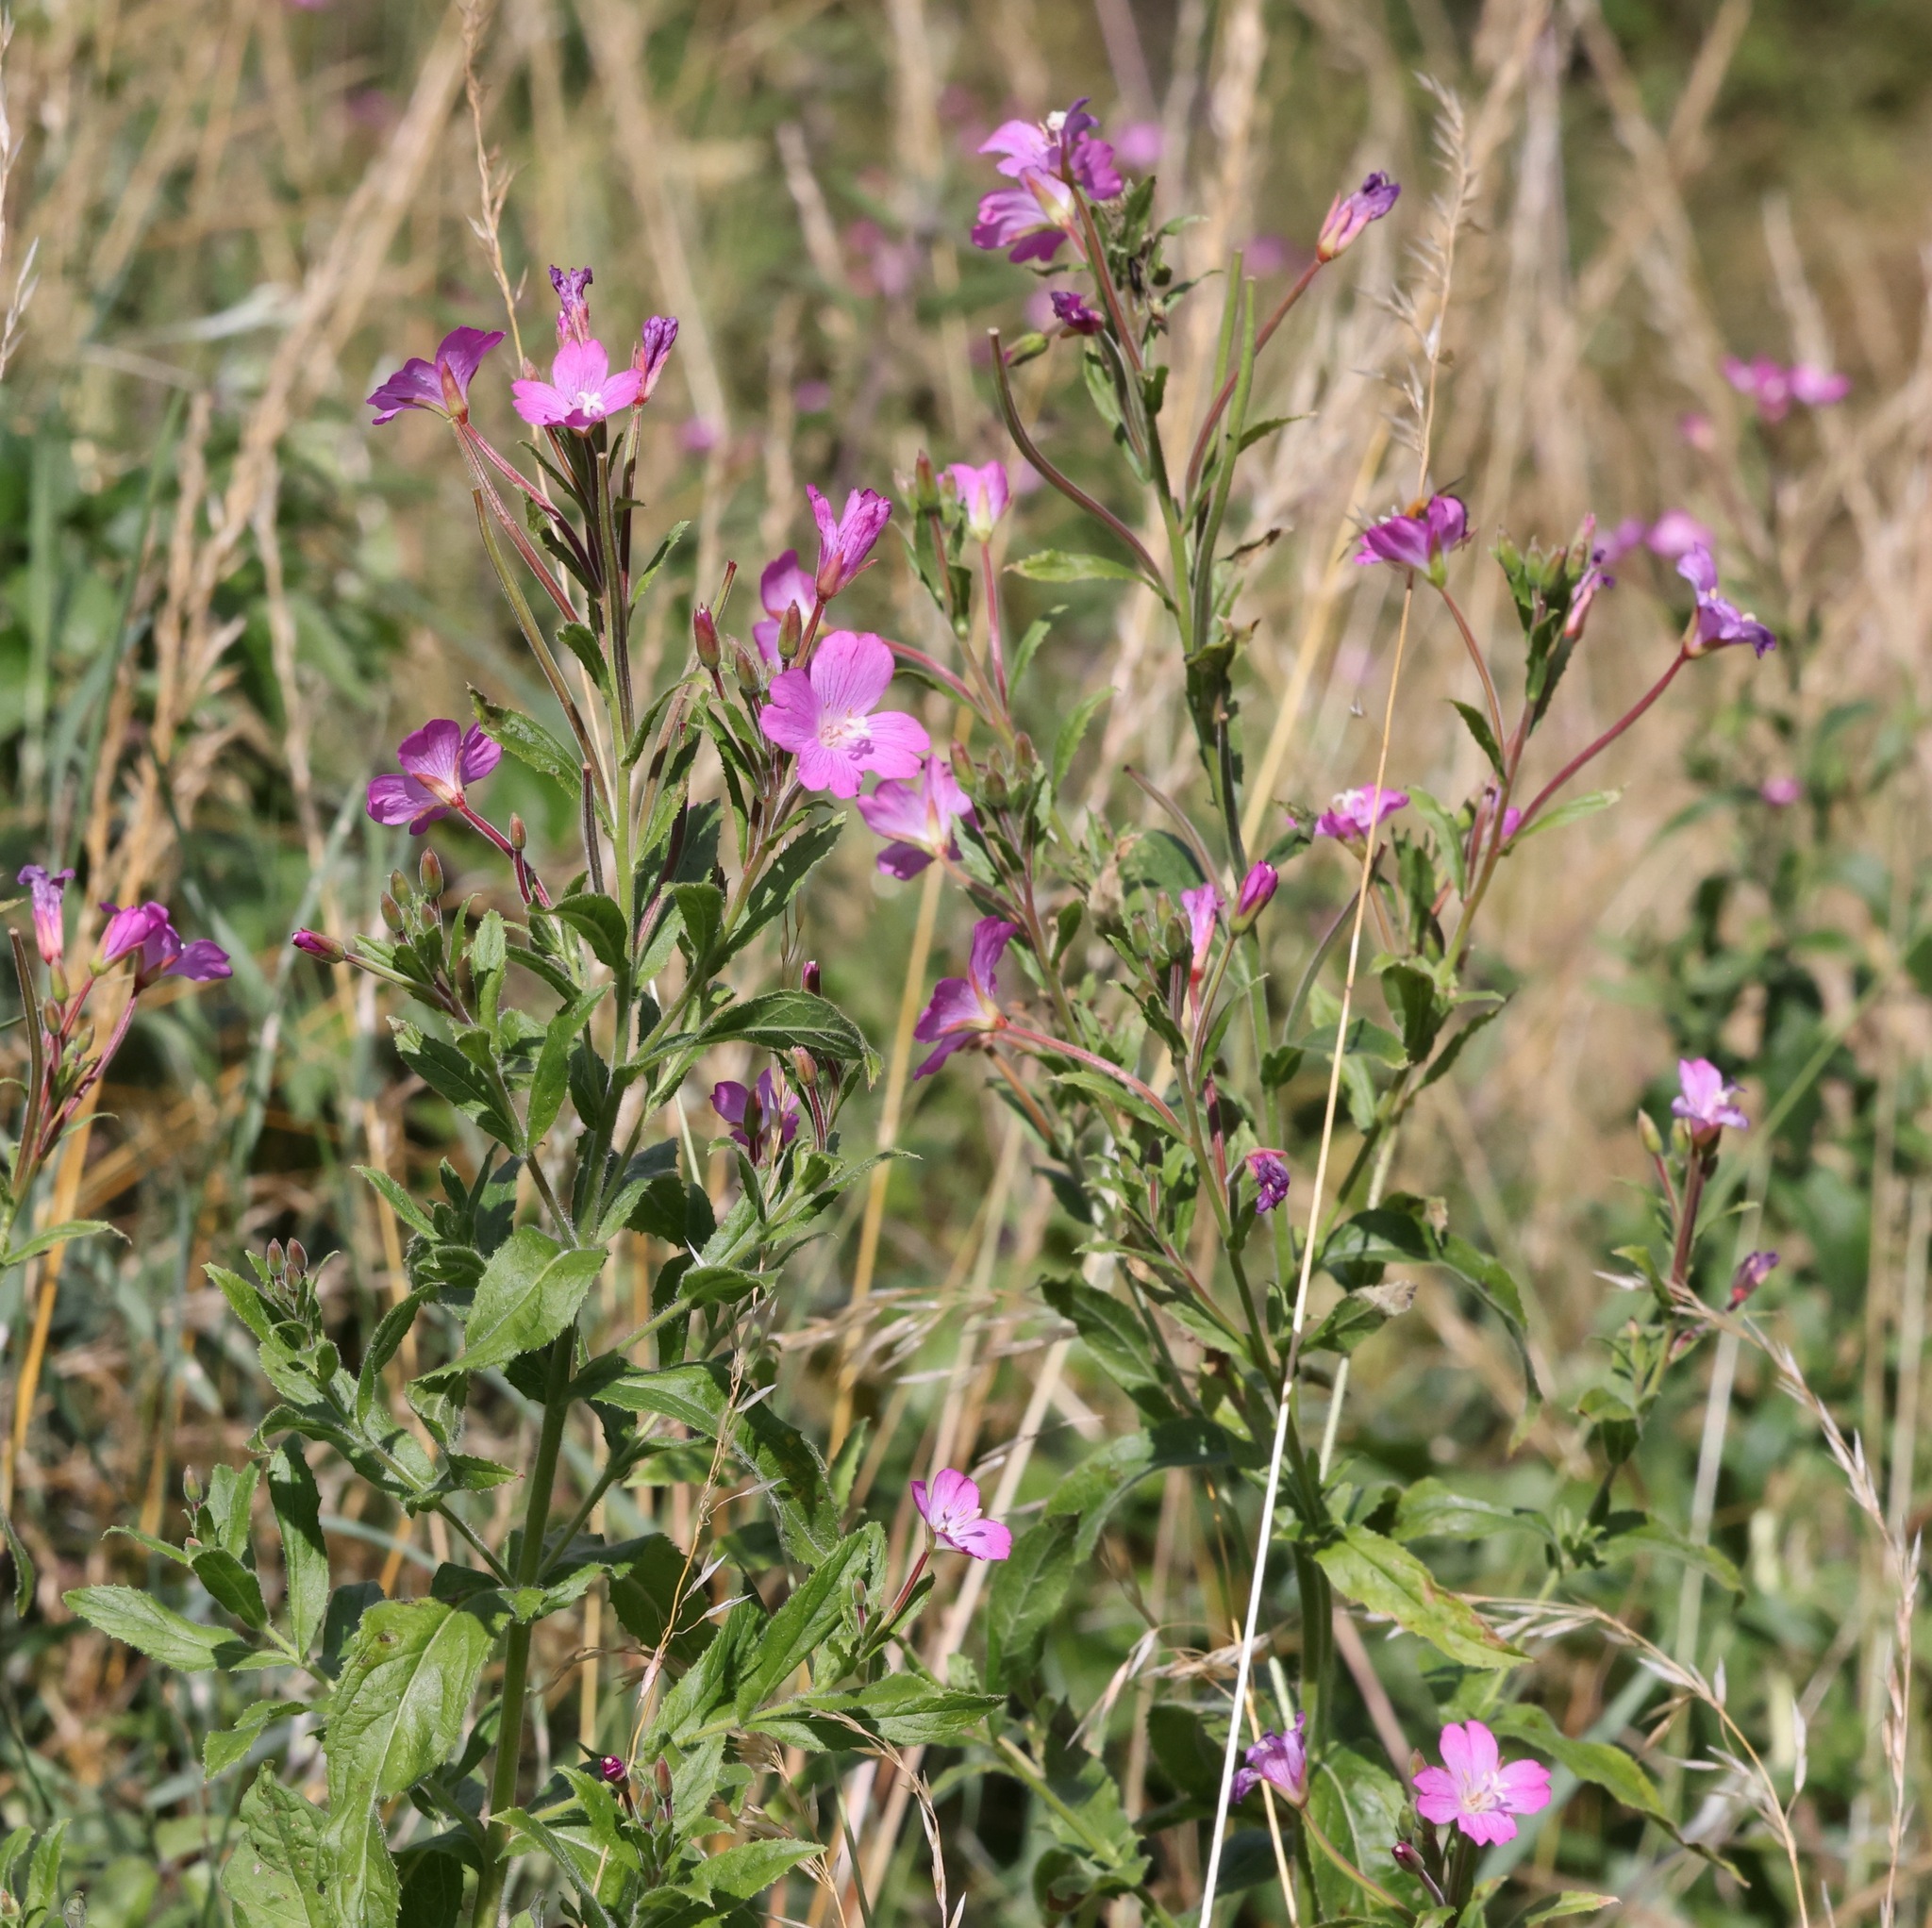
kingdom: Plantae
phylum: Tracheophyta
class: Magnoliopsida
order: Myrtales
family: Onagraceae
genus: Epilobium
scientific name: Epilobium hirsutum
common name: Great willowherb
